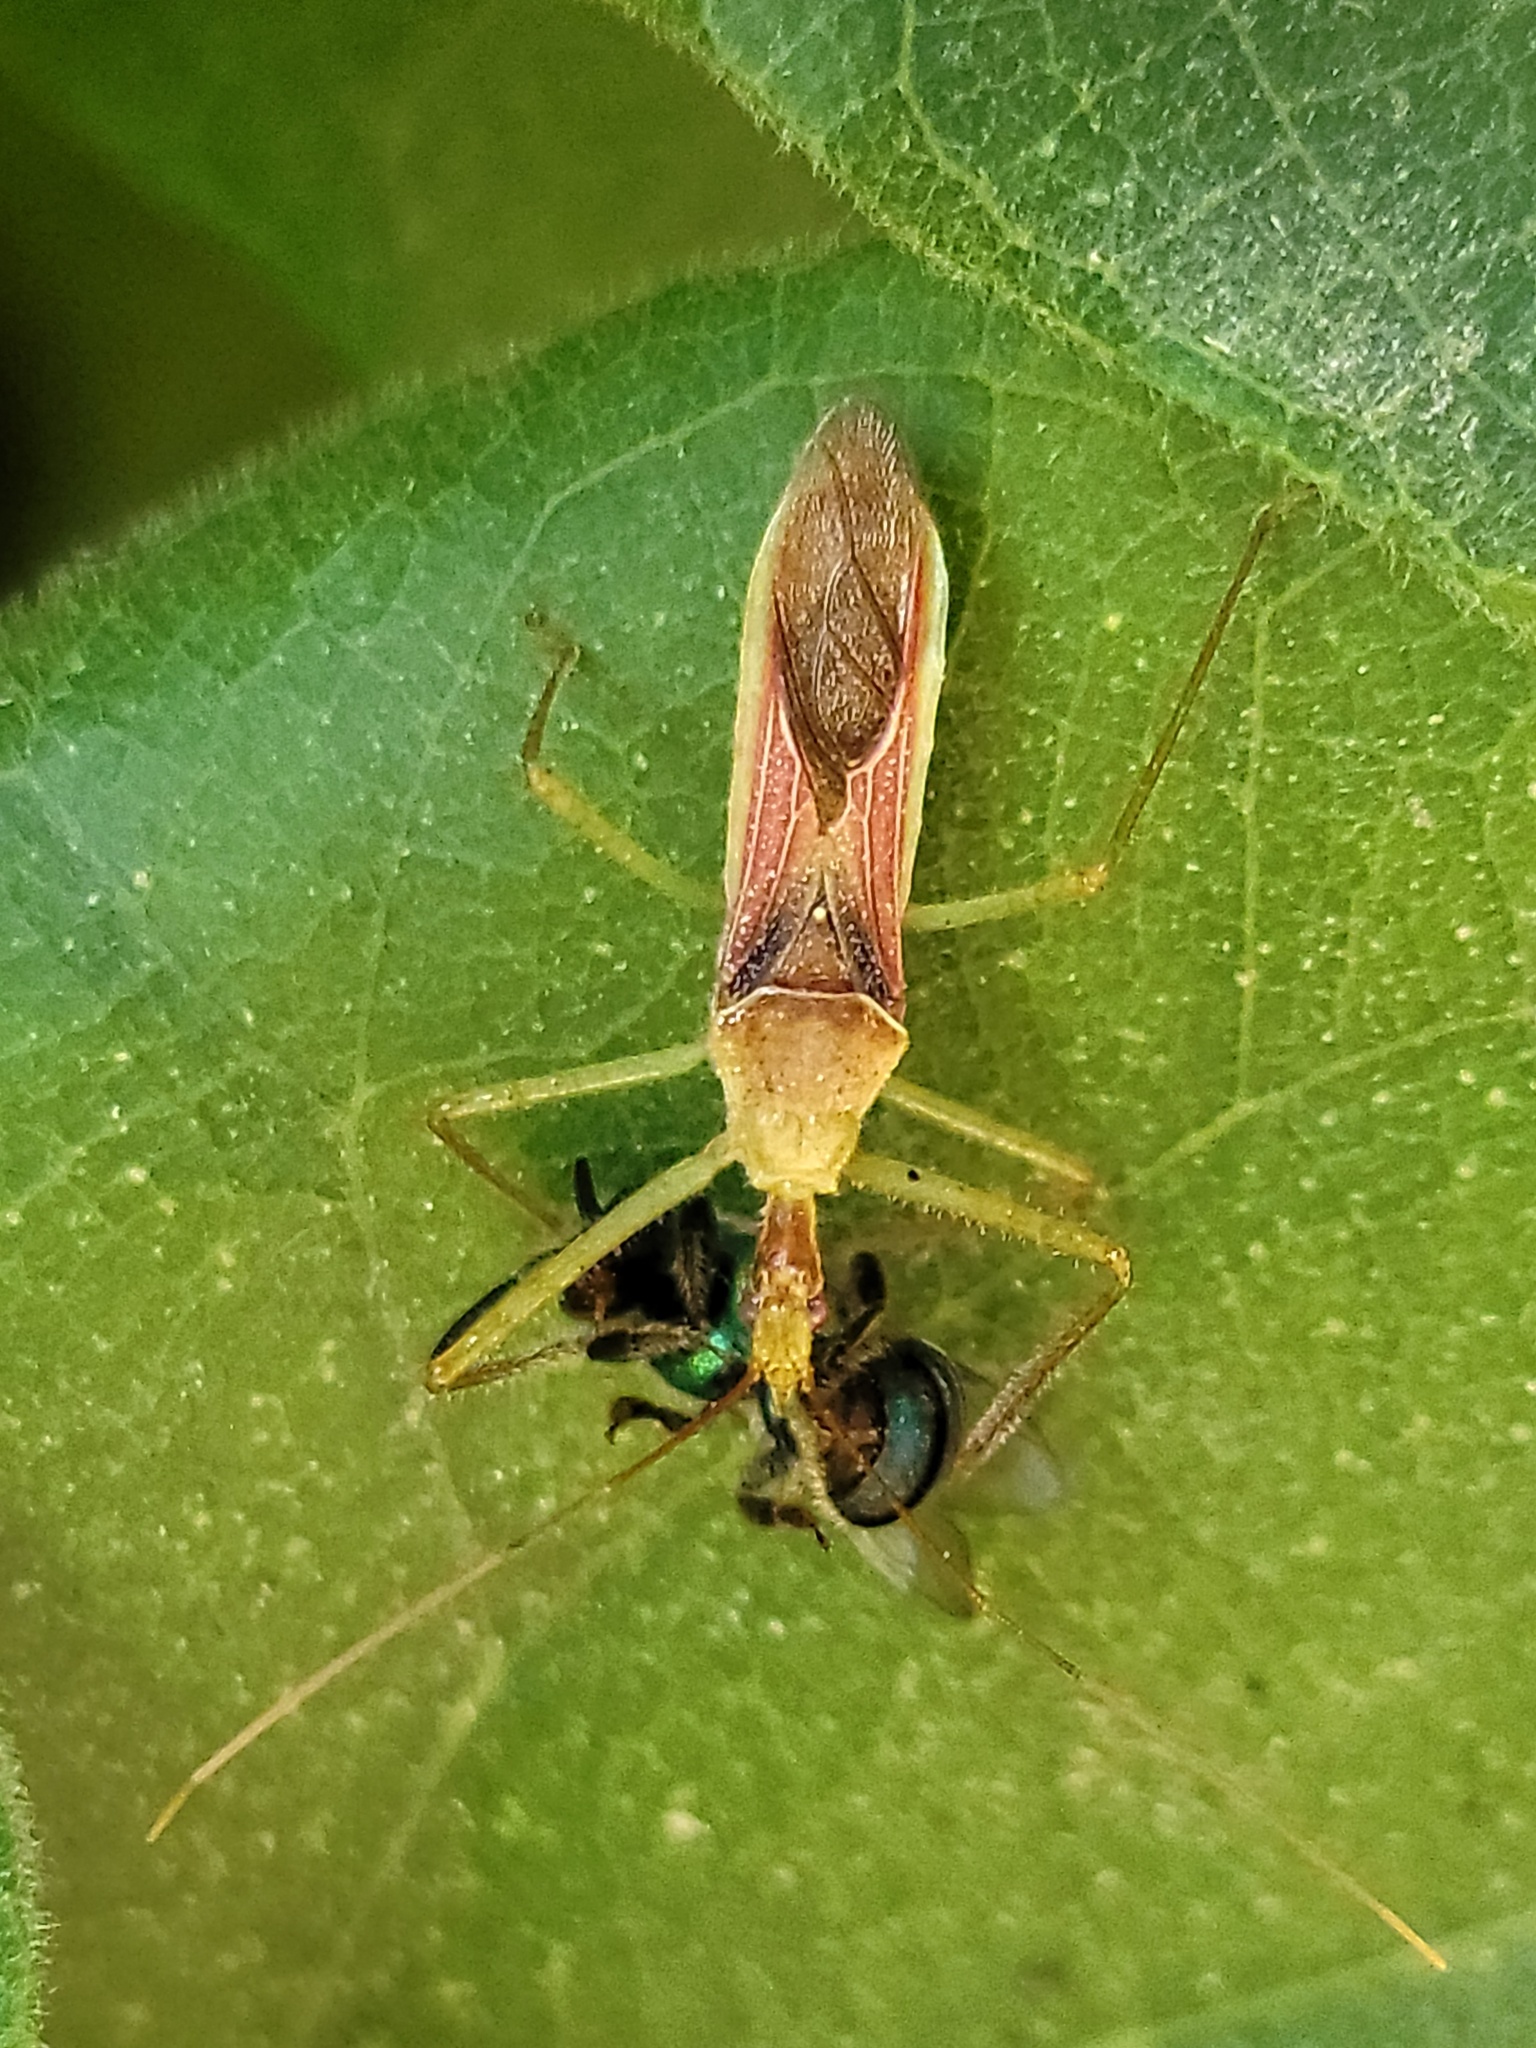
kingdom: Animalia
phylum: Arthropoda
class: Insecta
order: Hemiptera
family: Reduviidae
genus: Zelus
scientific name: Zelus renardii
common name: Assassin bug
